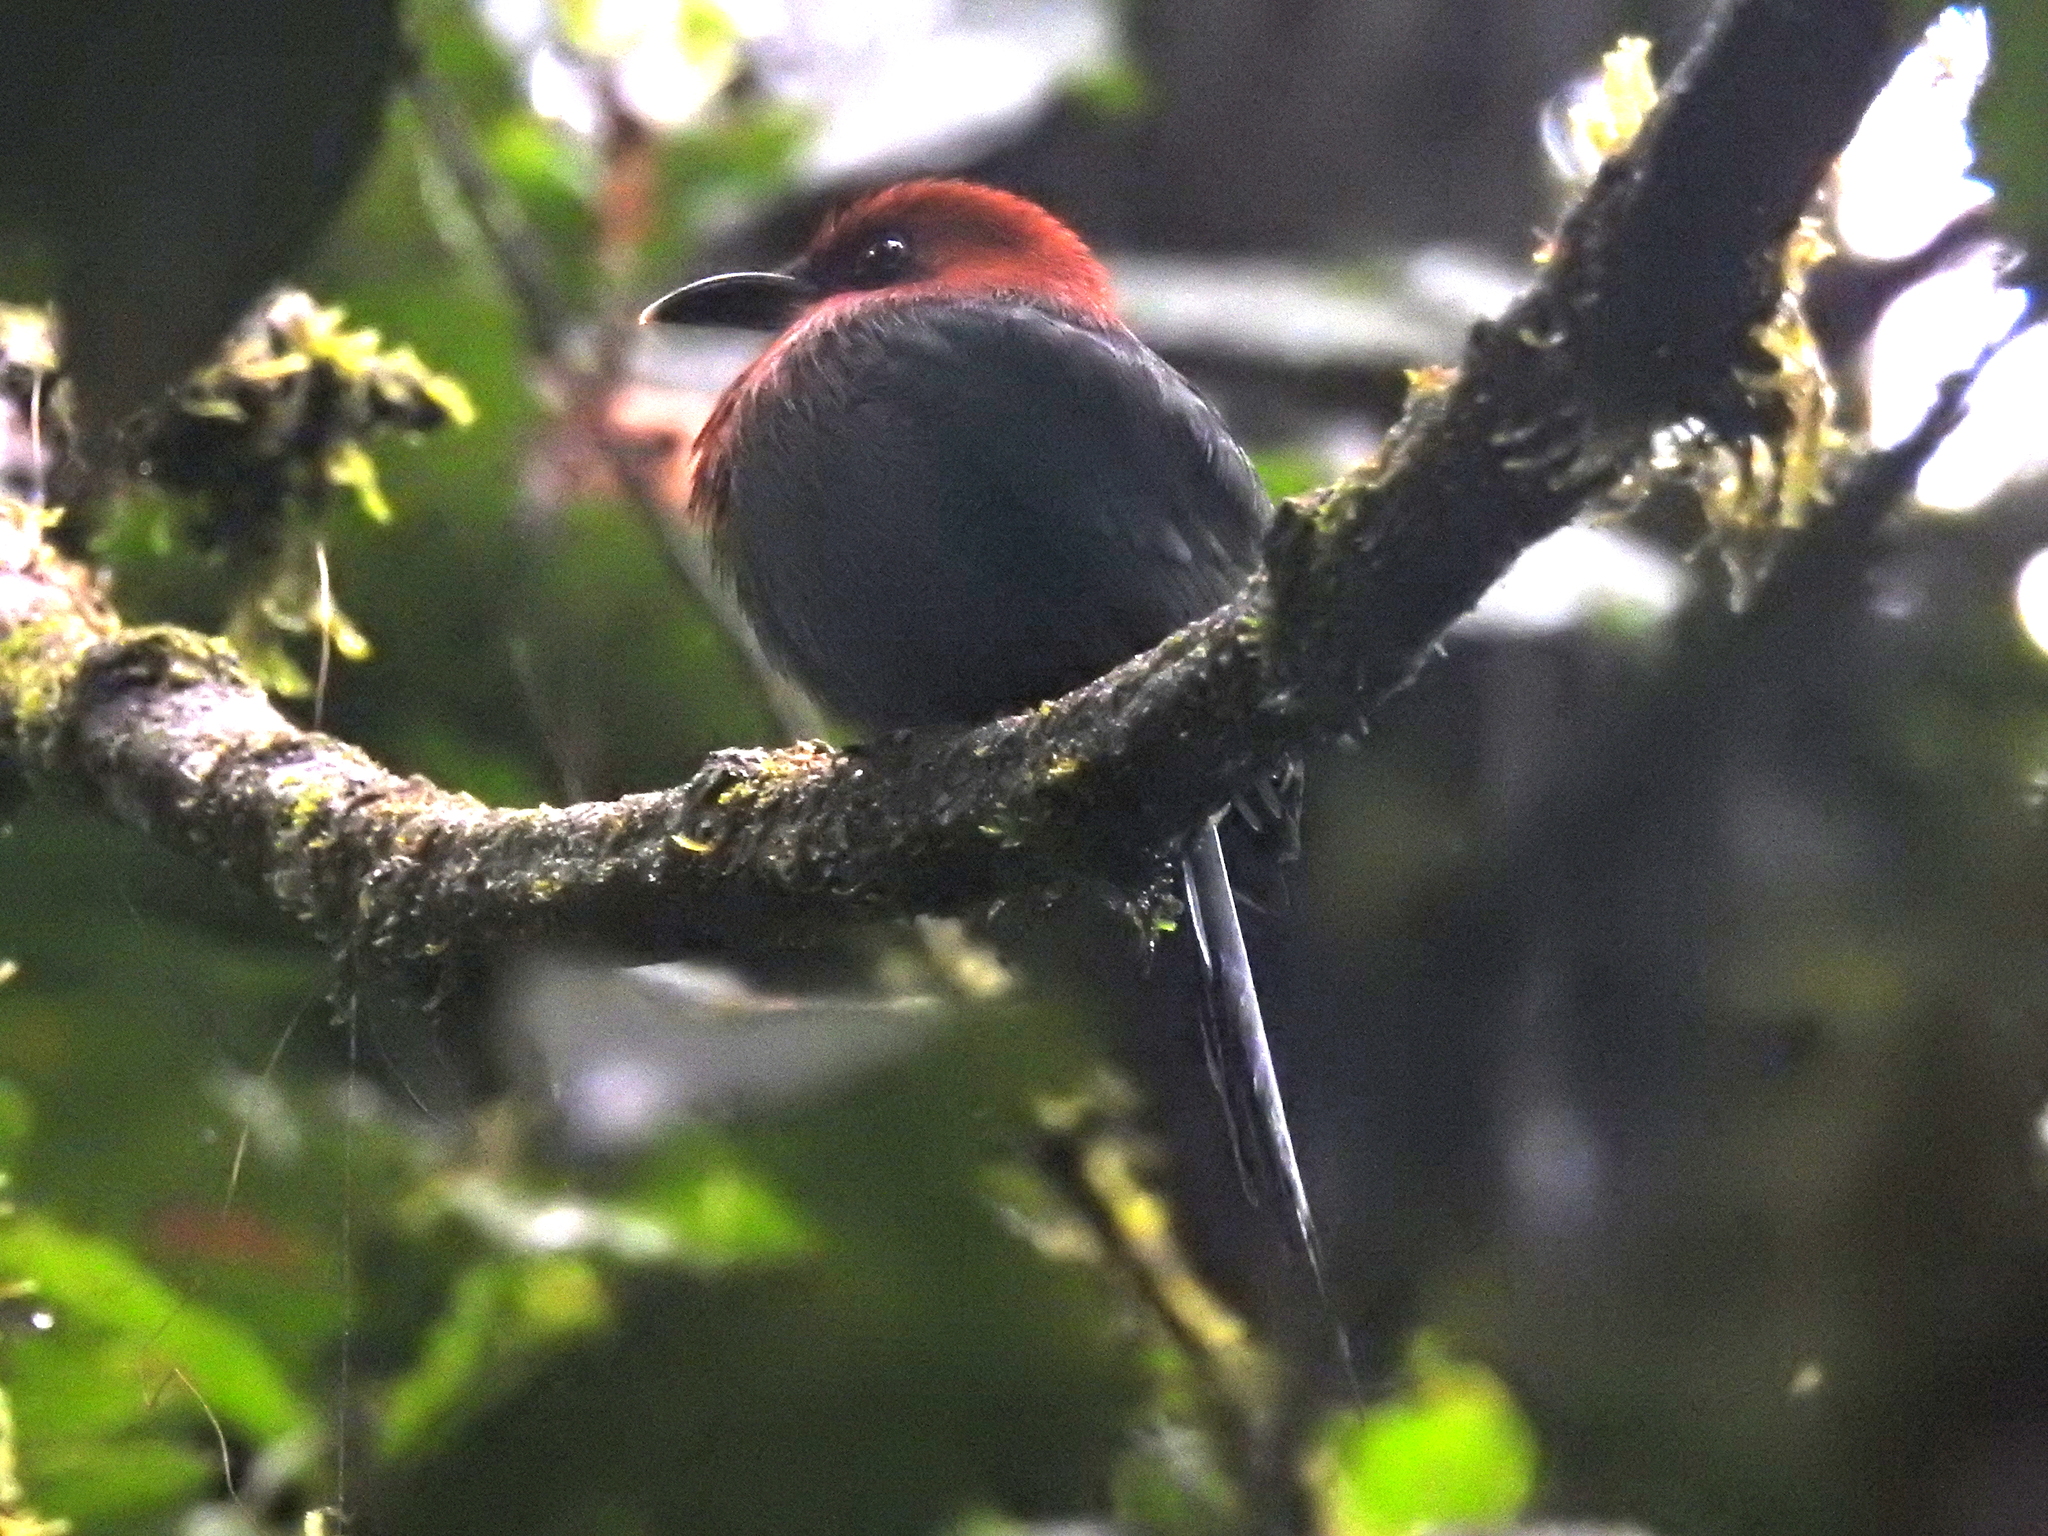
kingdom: Animalia
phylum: Chordata
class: Aves
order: Coraciiformes
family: Momotidae
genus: Electron
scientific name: Electron platyrhynchum
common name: Broad-billed motmot
